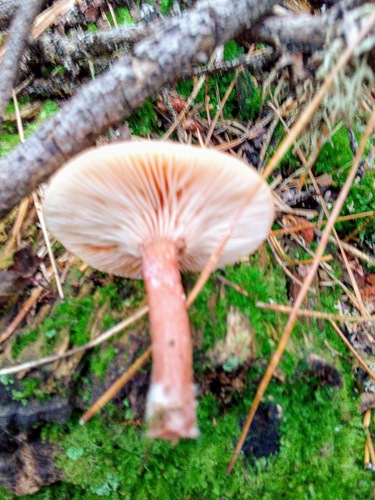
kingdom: Fungi
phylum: Basidiomycota
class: Agaricomycetes
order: Russulales
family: Russulaceae
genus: Lactarius
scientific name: Lactarius
